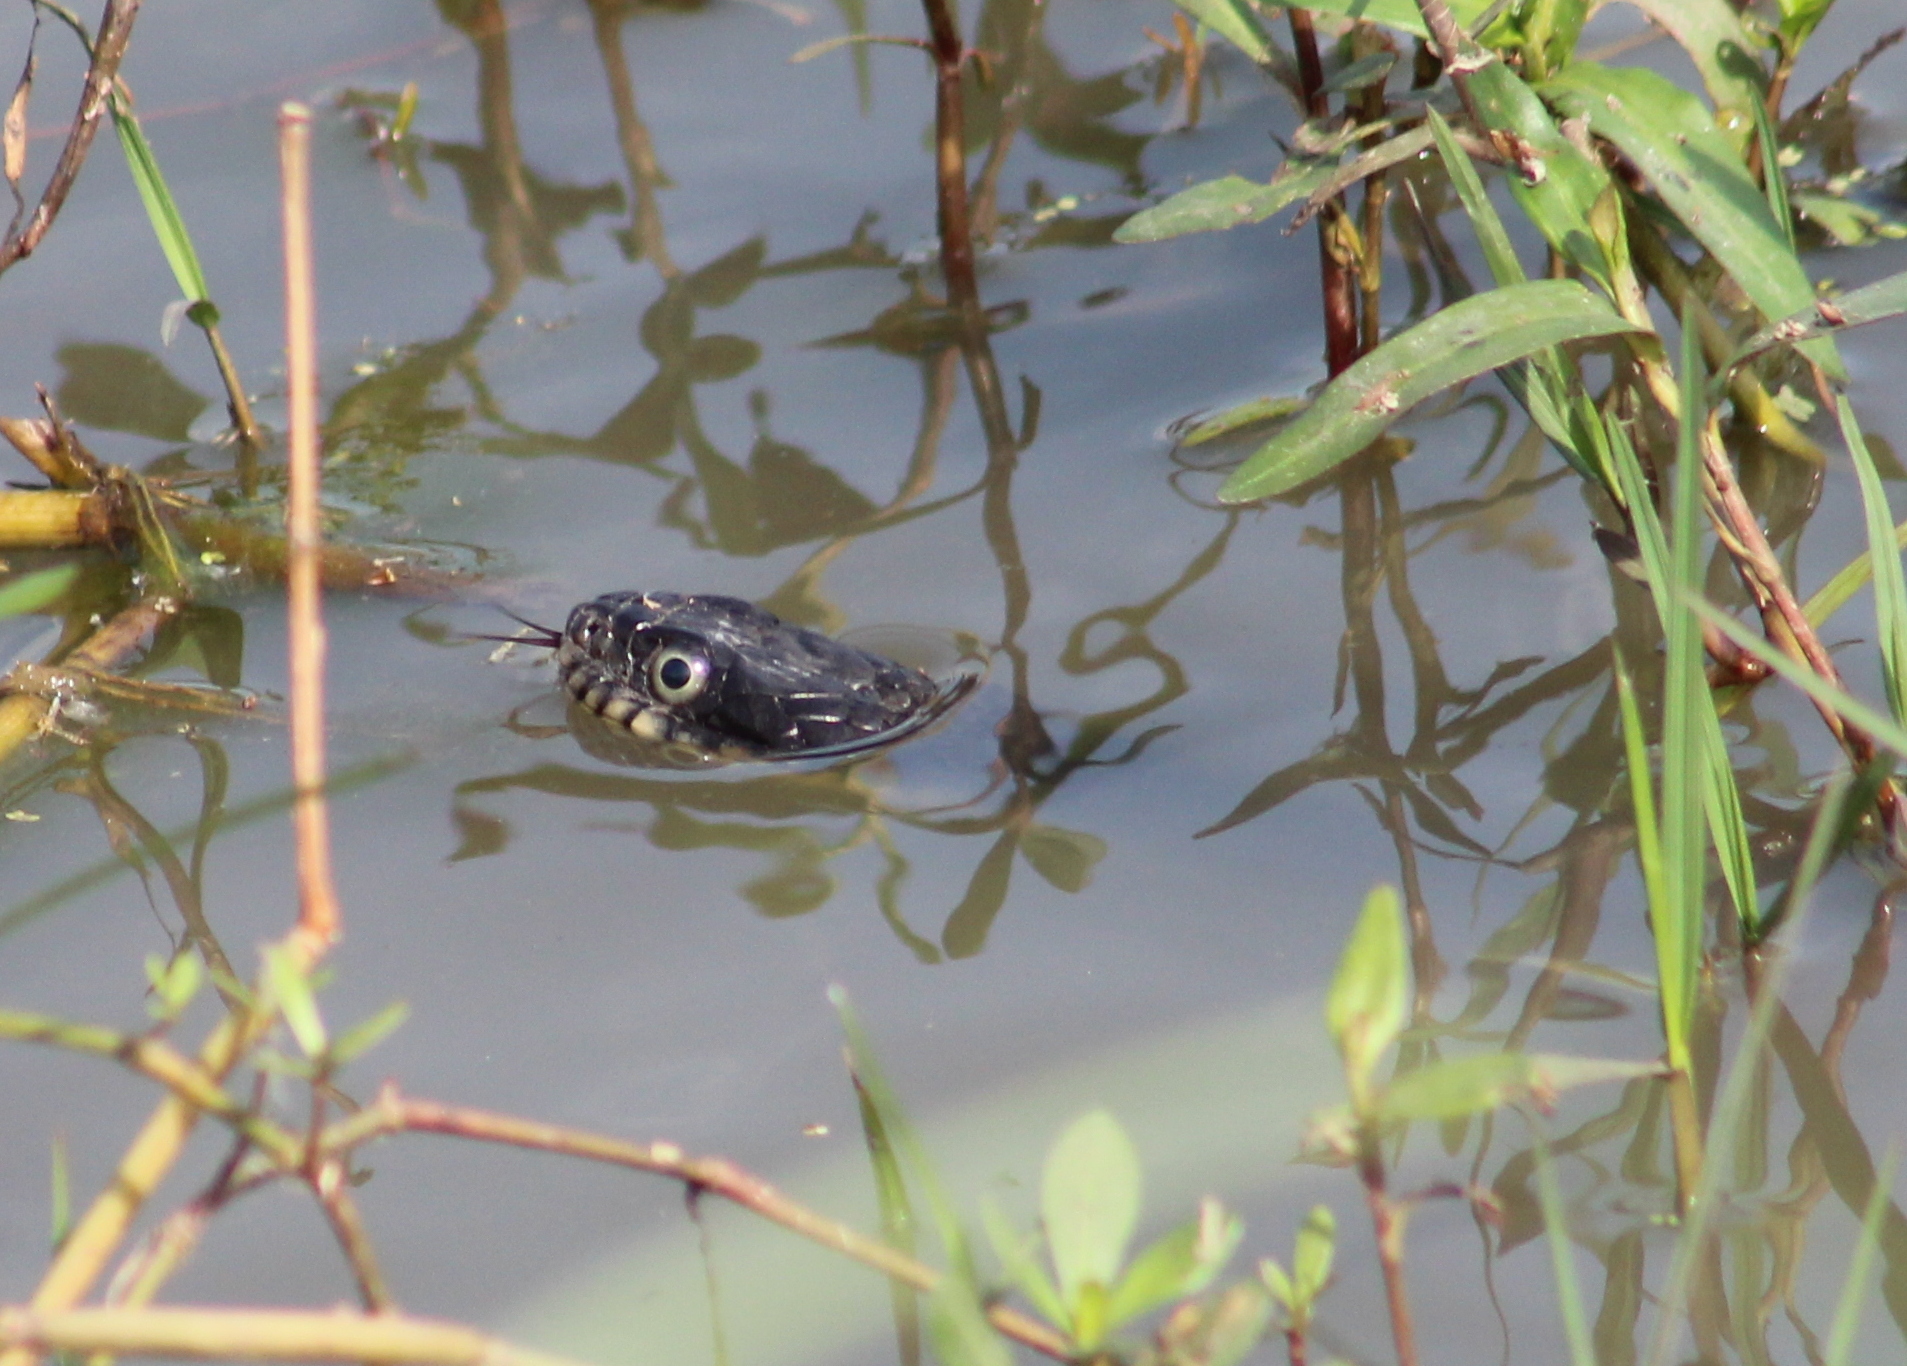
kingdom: Animalia
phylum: Chordata
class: Squamata
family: Colubridae
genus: Nerodia
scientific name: Nerodia erythrogaster
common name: Plainbelly water snake
